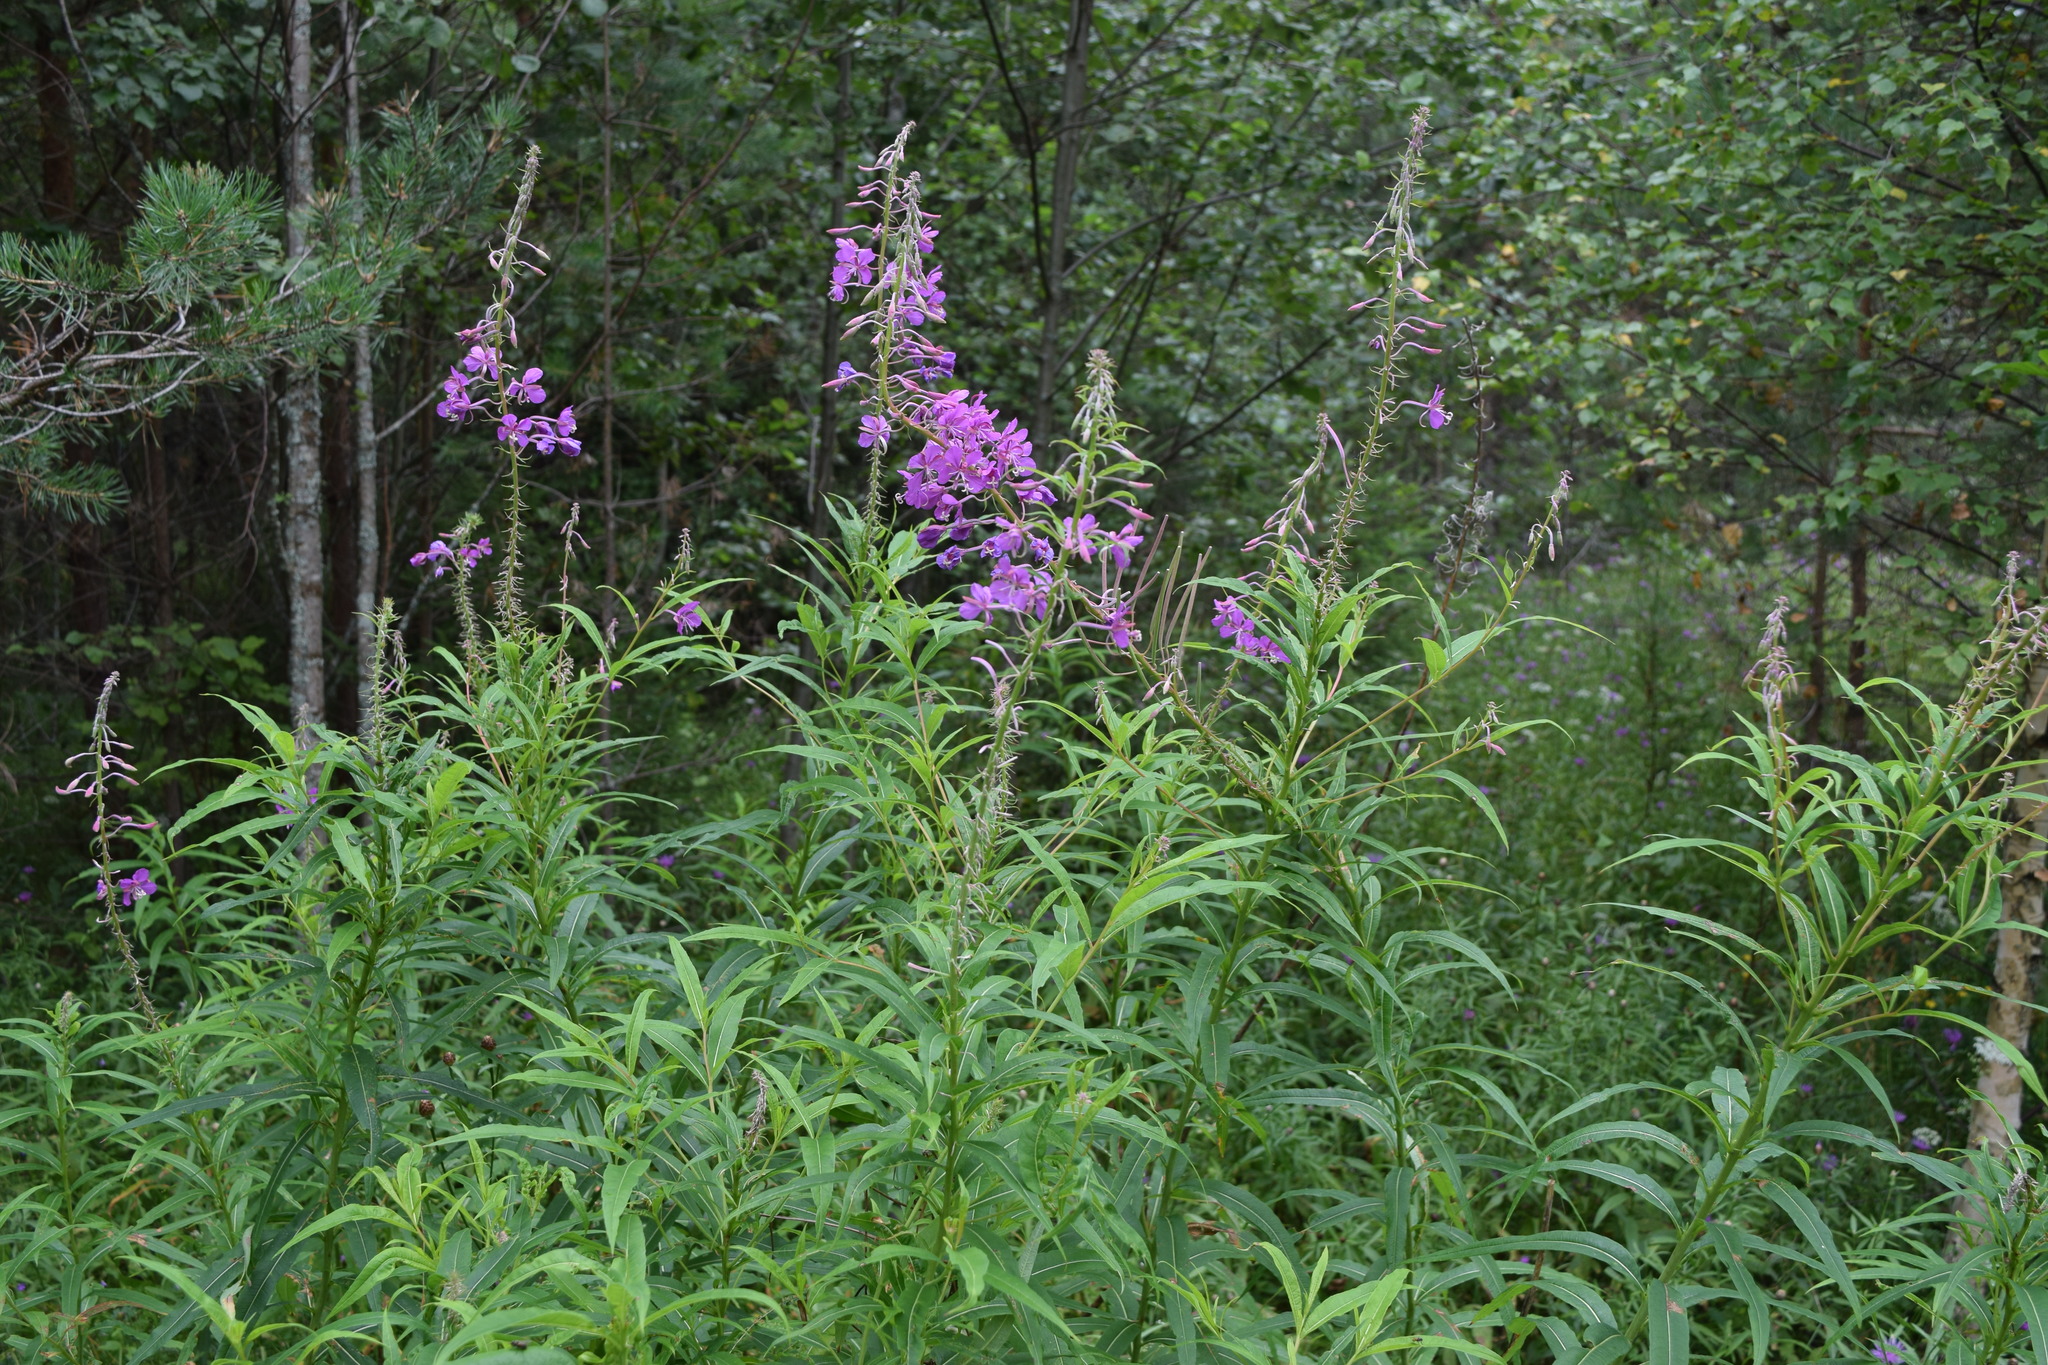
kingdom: Plantae
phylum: Tracheophyta
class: Magnoliopsida
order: Myrtales
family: Onagraceae
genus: Chamaenerion
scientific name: Chamaenerion angustifolium
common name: Fireweed
